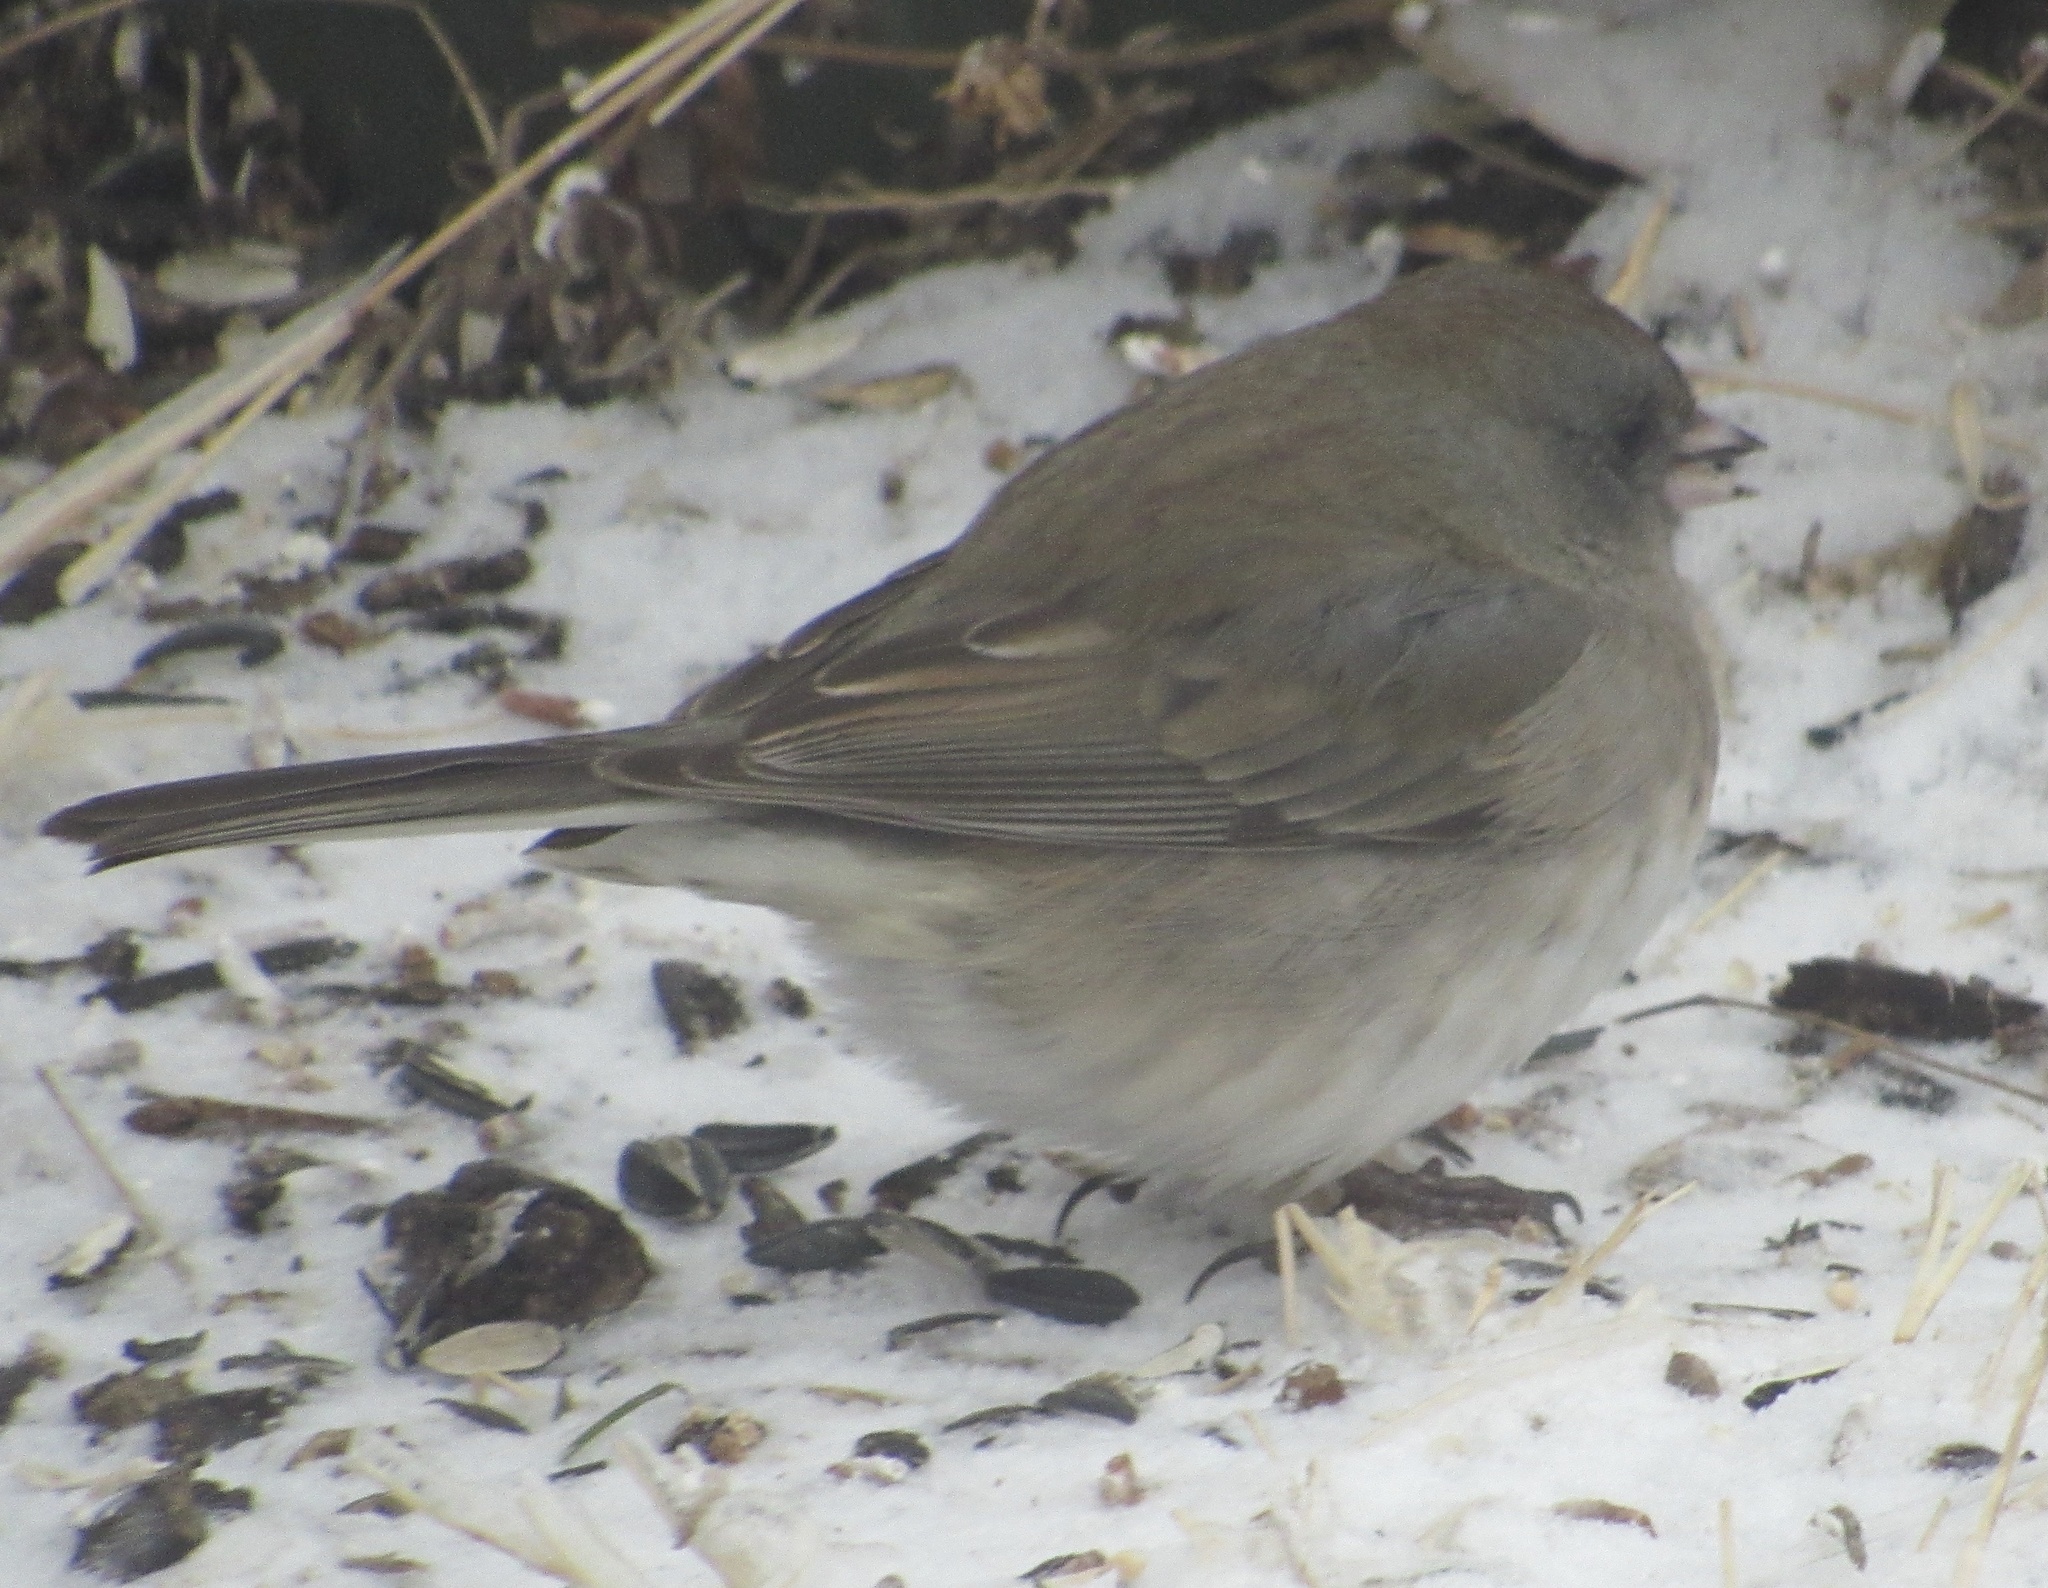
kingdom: Animalia
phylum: Chordata
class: Aves
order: Passeriformes
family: Passerellidae
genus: Junco
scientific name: Junco hyemalis
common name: Dark-eyed junco
